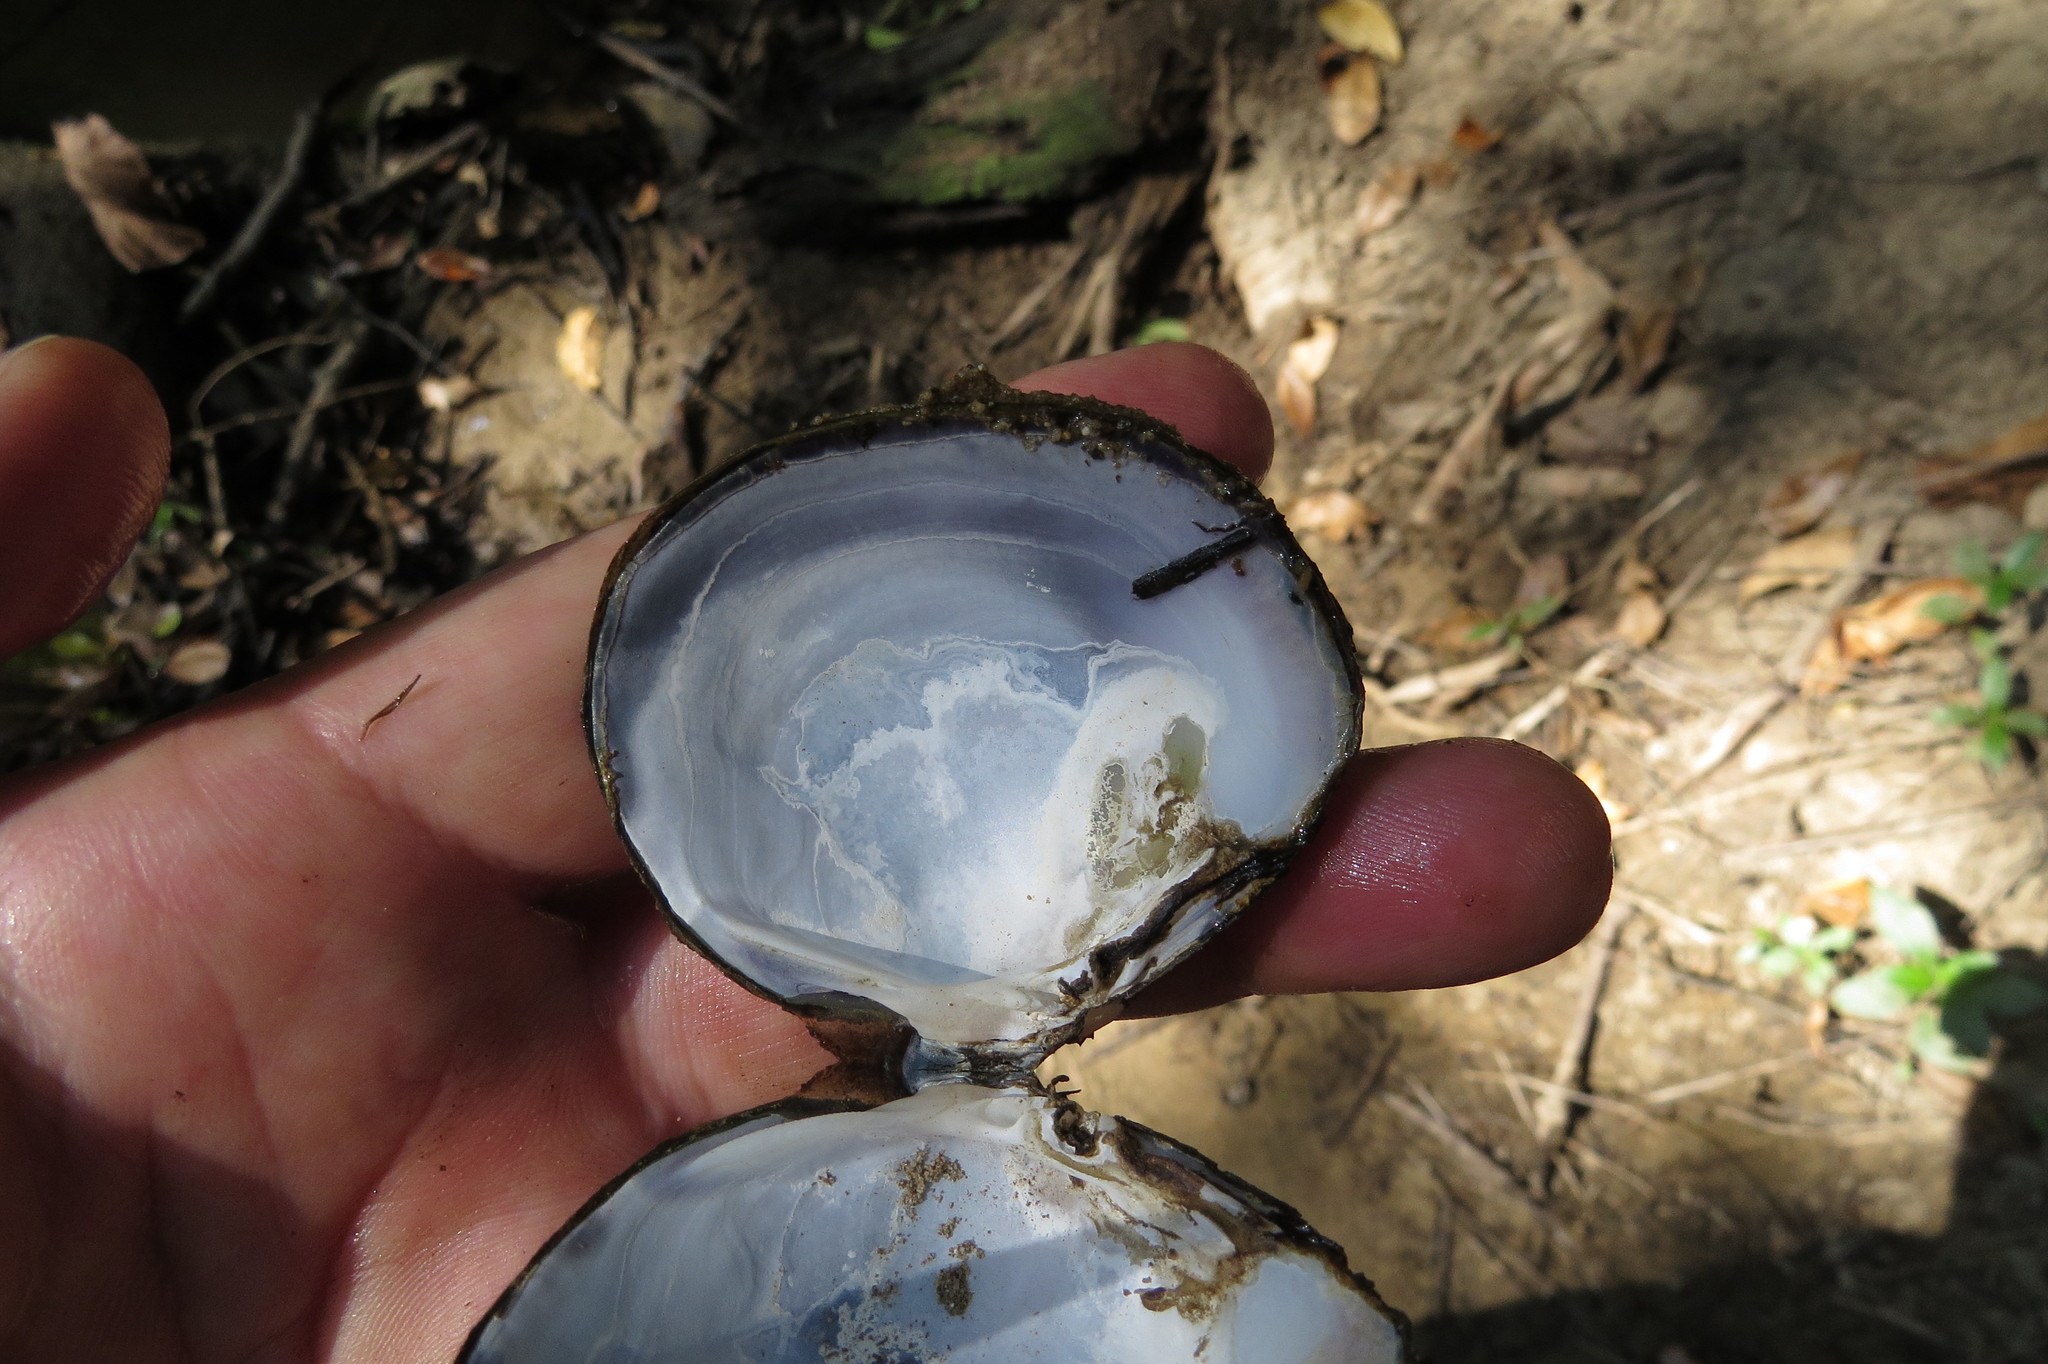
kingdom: Animalia
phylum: Mollusca
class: Bivalvia
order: Venerida
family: Cyrenidae
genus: Batissa
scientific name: Batissa violacea
